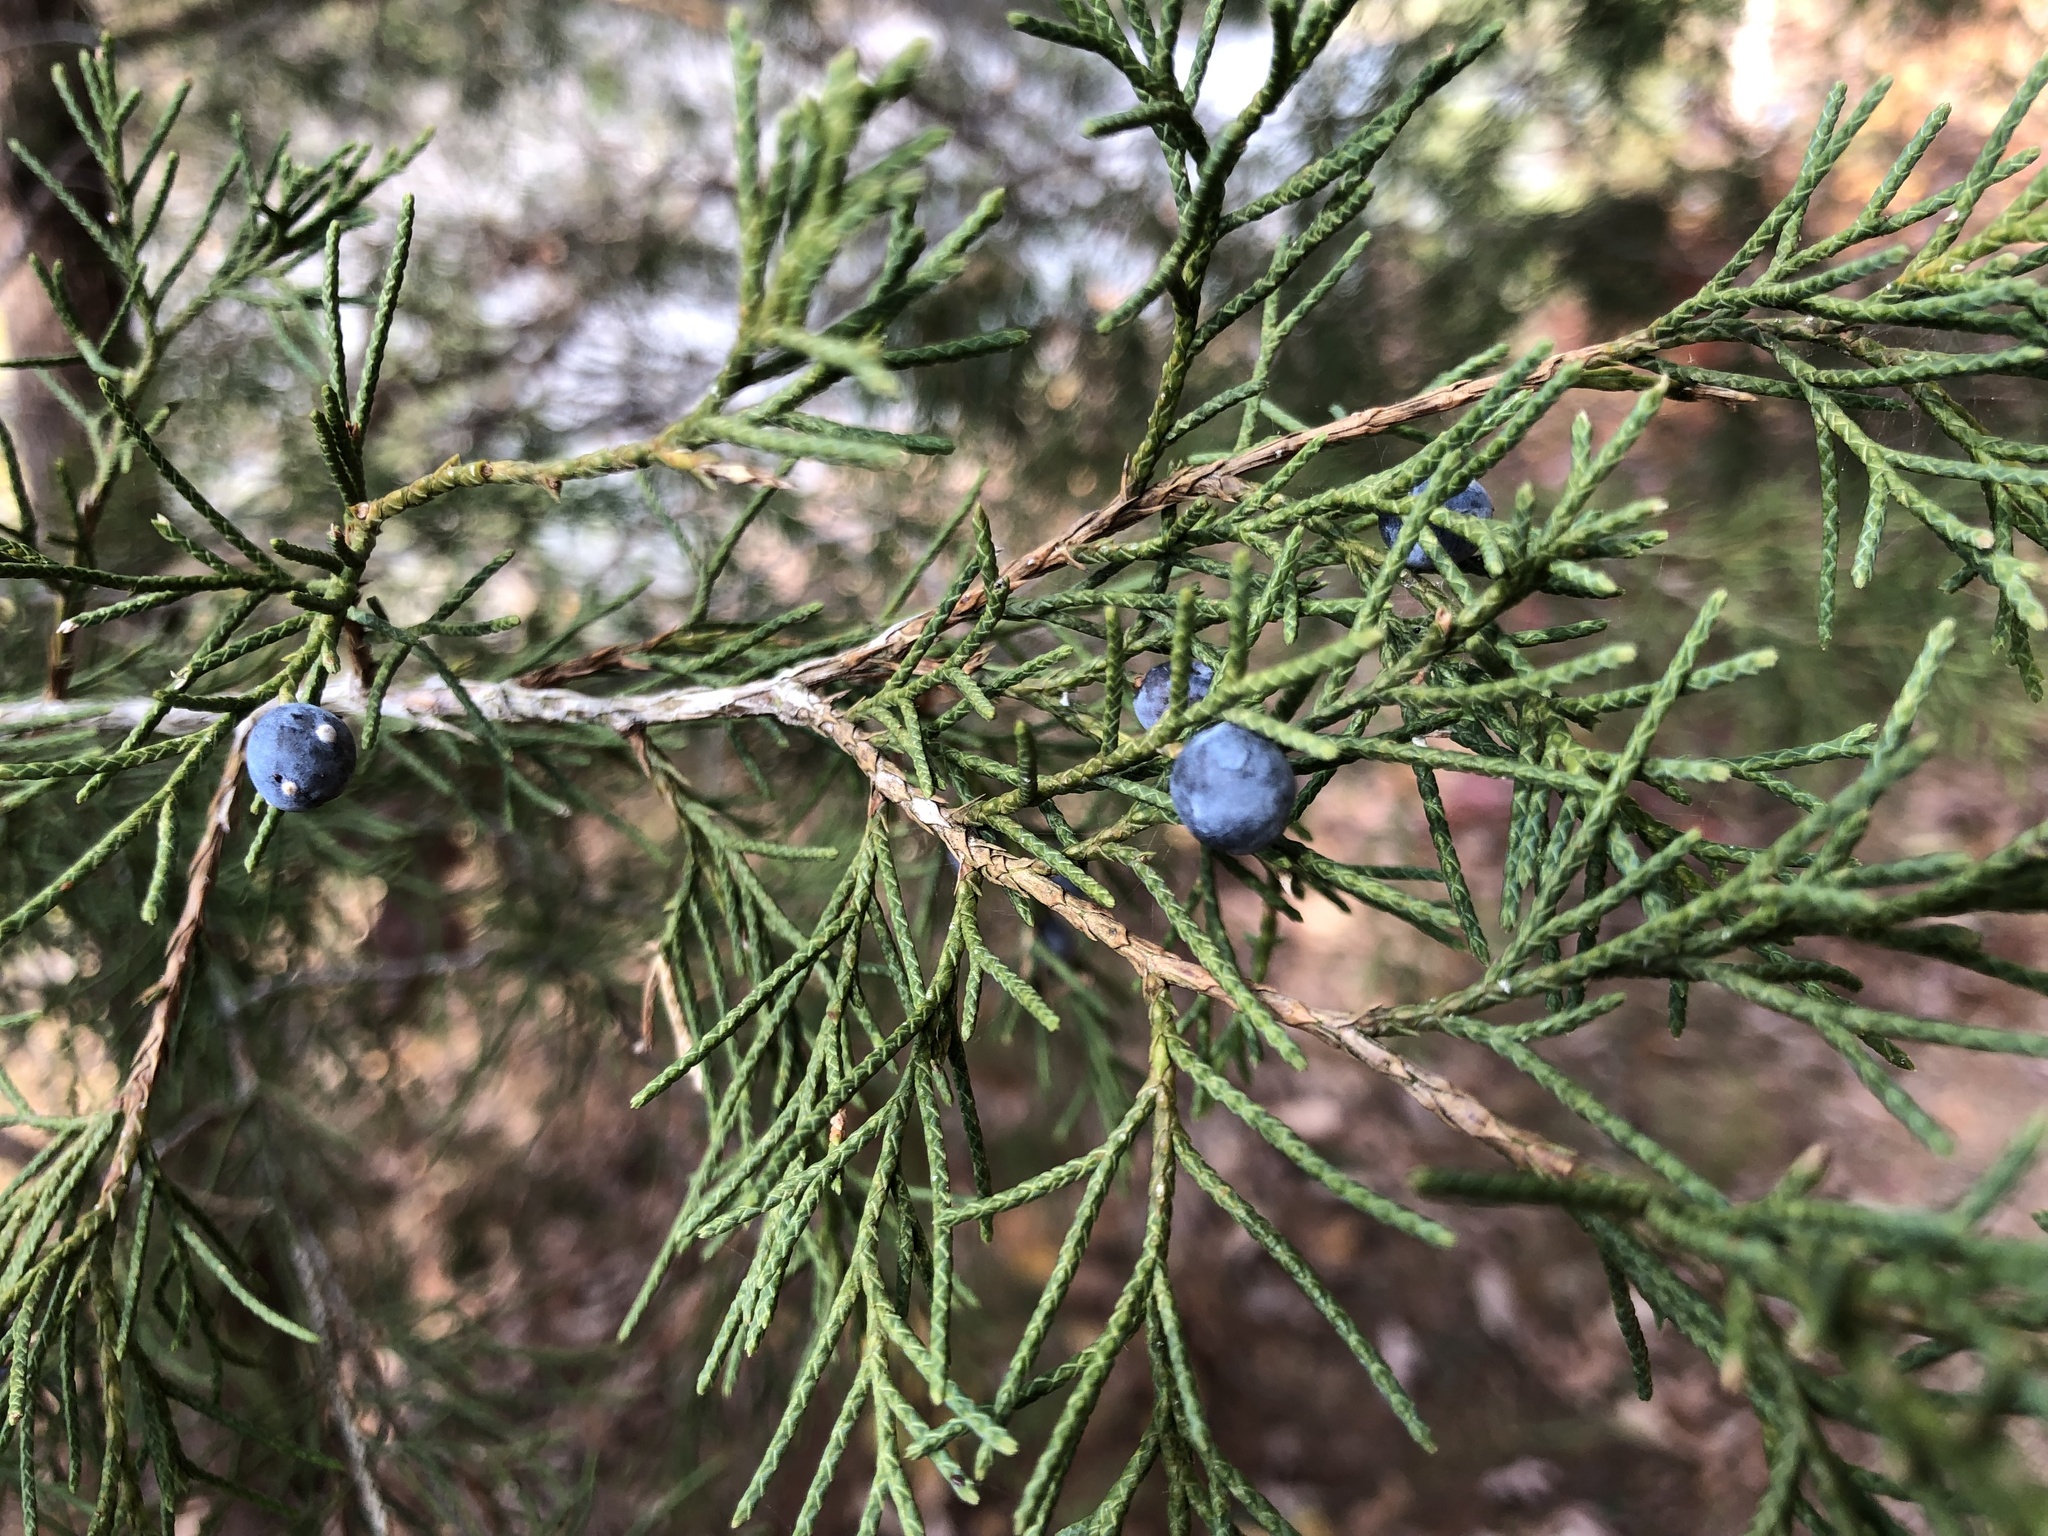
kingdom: Plantae
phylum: Tracheophyta
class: Pinopsida
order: Pinales
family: Cupressaceae
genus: Juniperus
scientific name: Juniperus virginiana
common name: Red juniper
